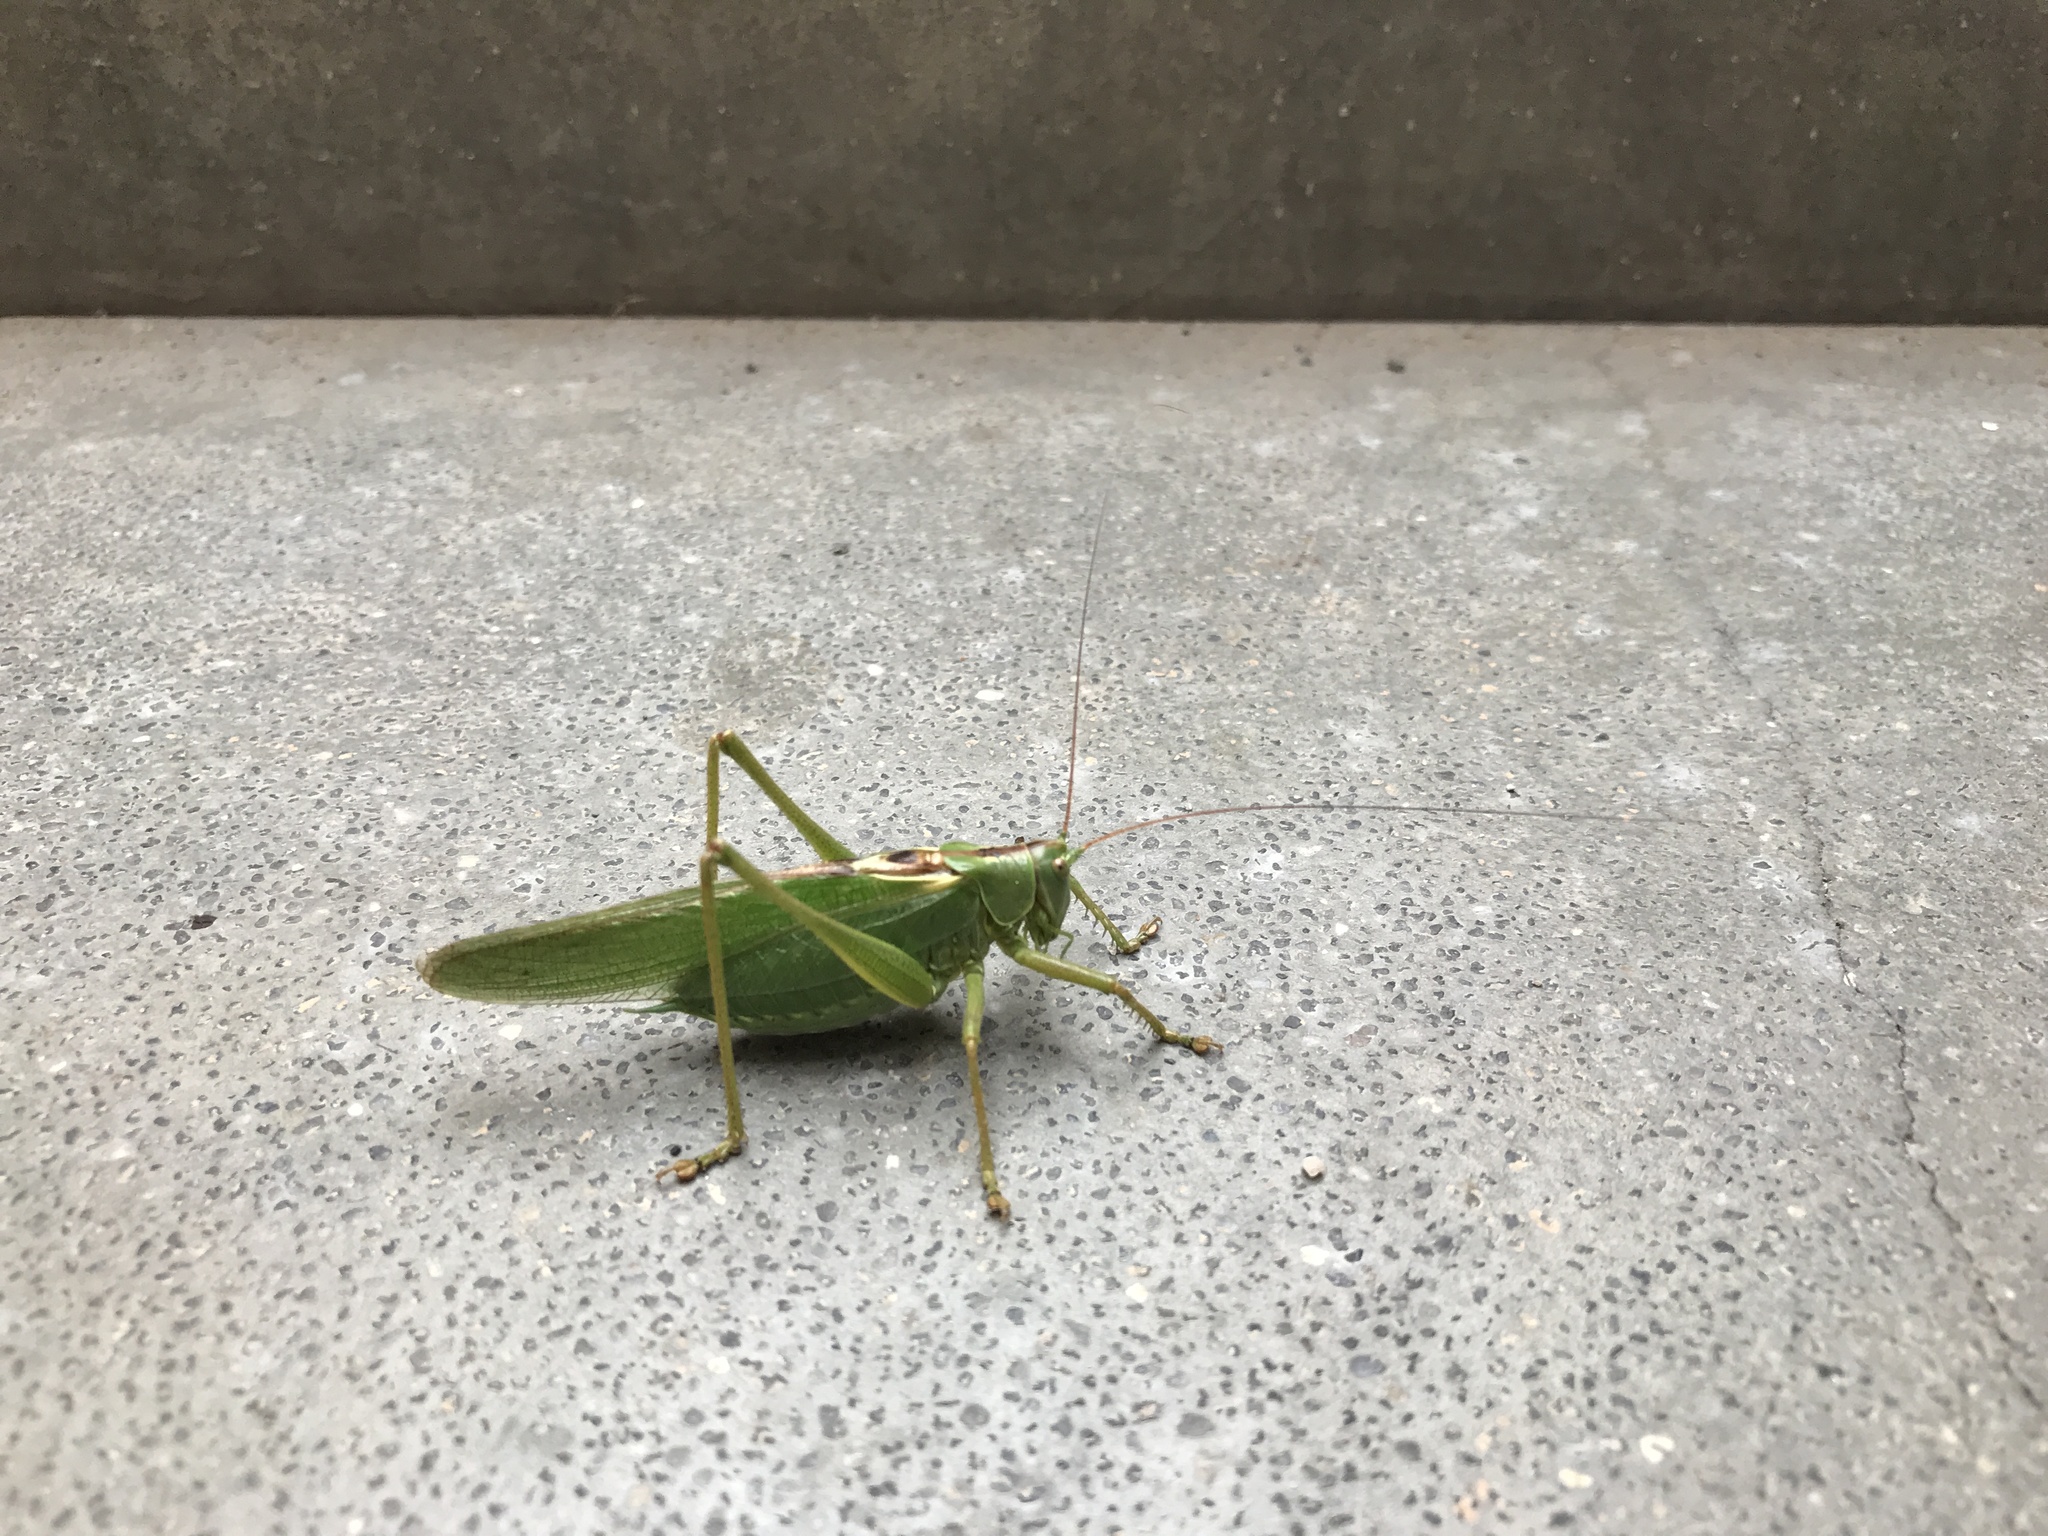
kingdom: Animalia
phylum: Arthropoda
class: Insecta
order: Orthoptera
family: Tettigoniidae
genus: Tettigonia
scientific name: Tettigonia viridissima
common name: Great green bush-cricket
